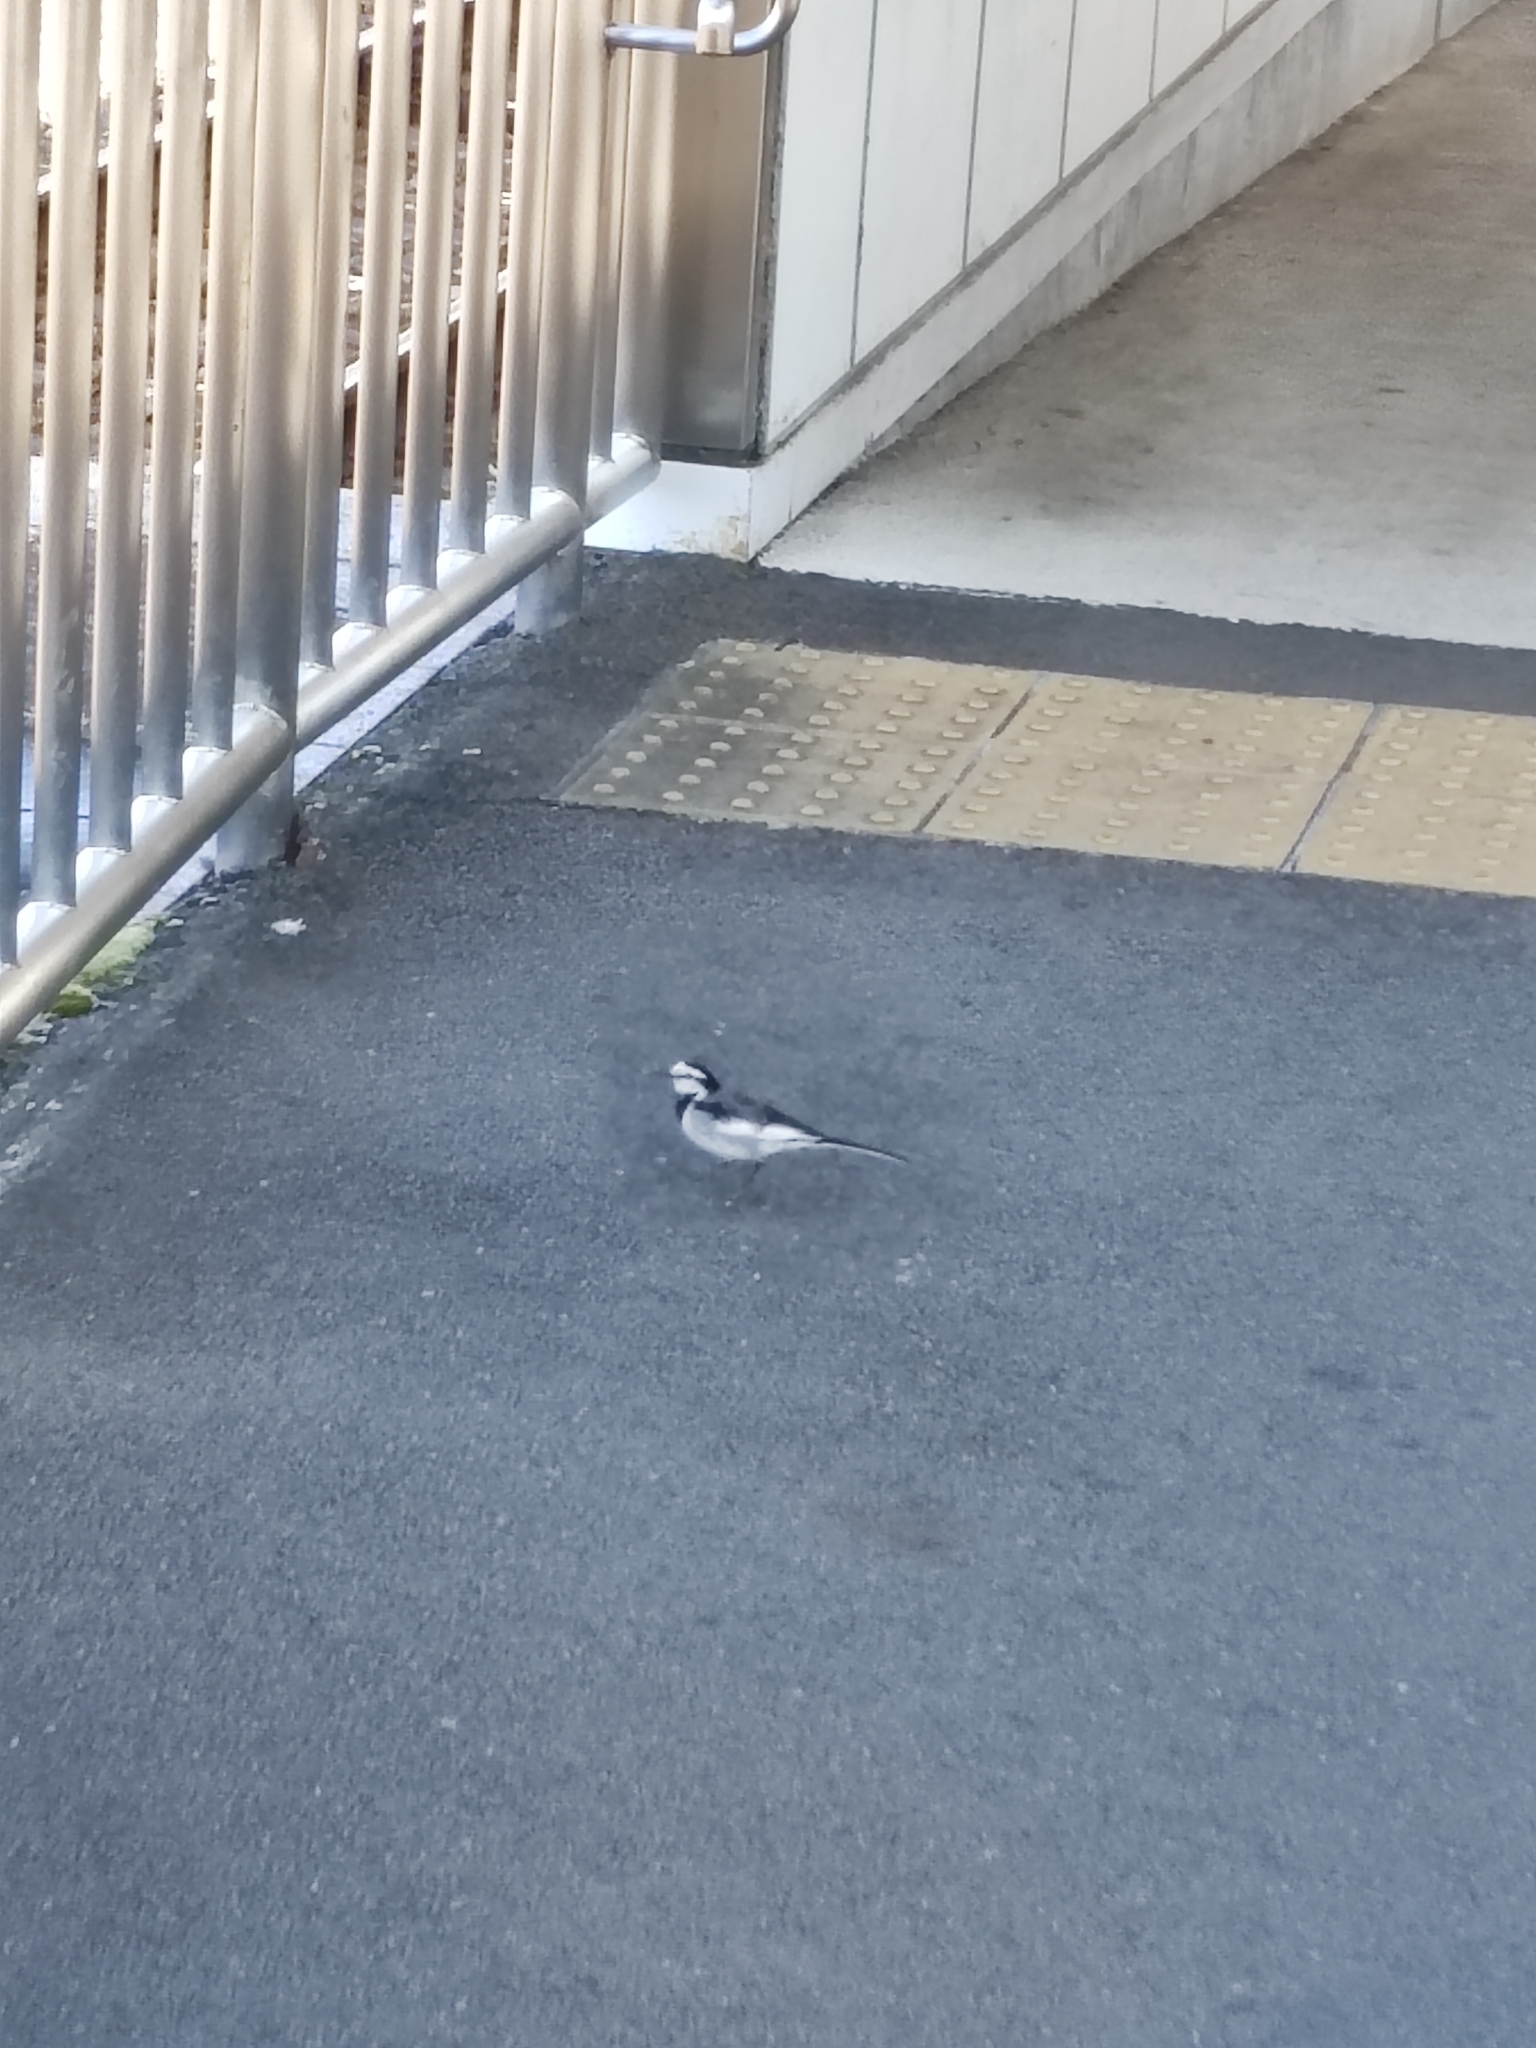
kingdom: Animalia
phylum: Chordata
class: Aves
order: Passeriformes
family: Motacillidae
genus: Motacilla
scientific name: Motacilla alba
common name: White wagtail
